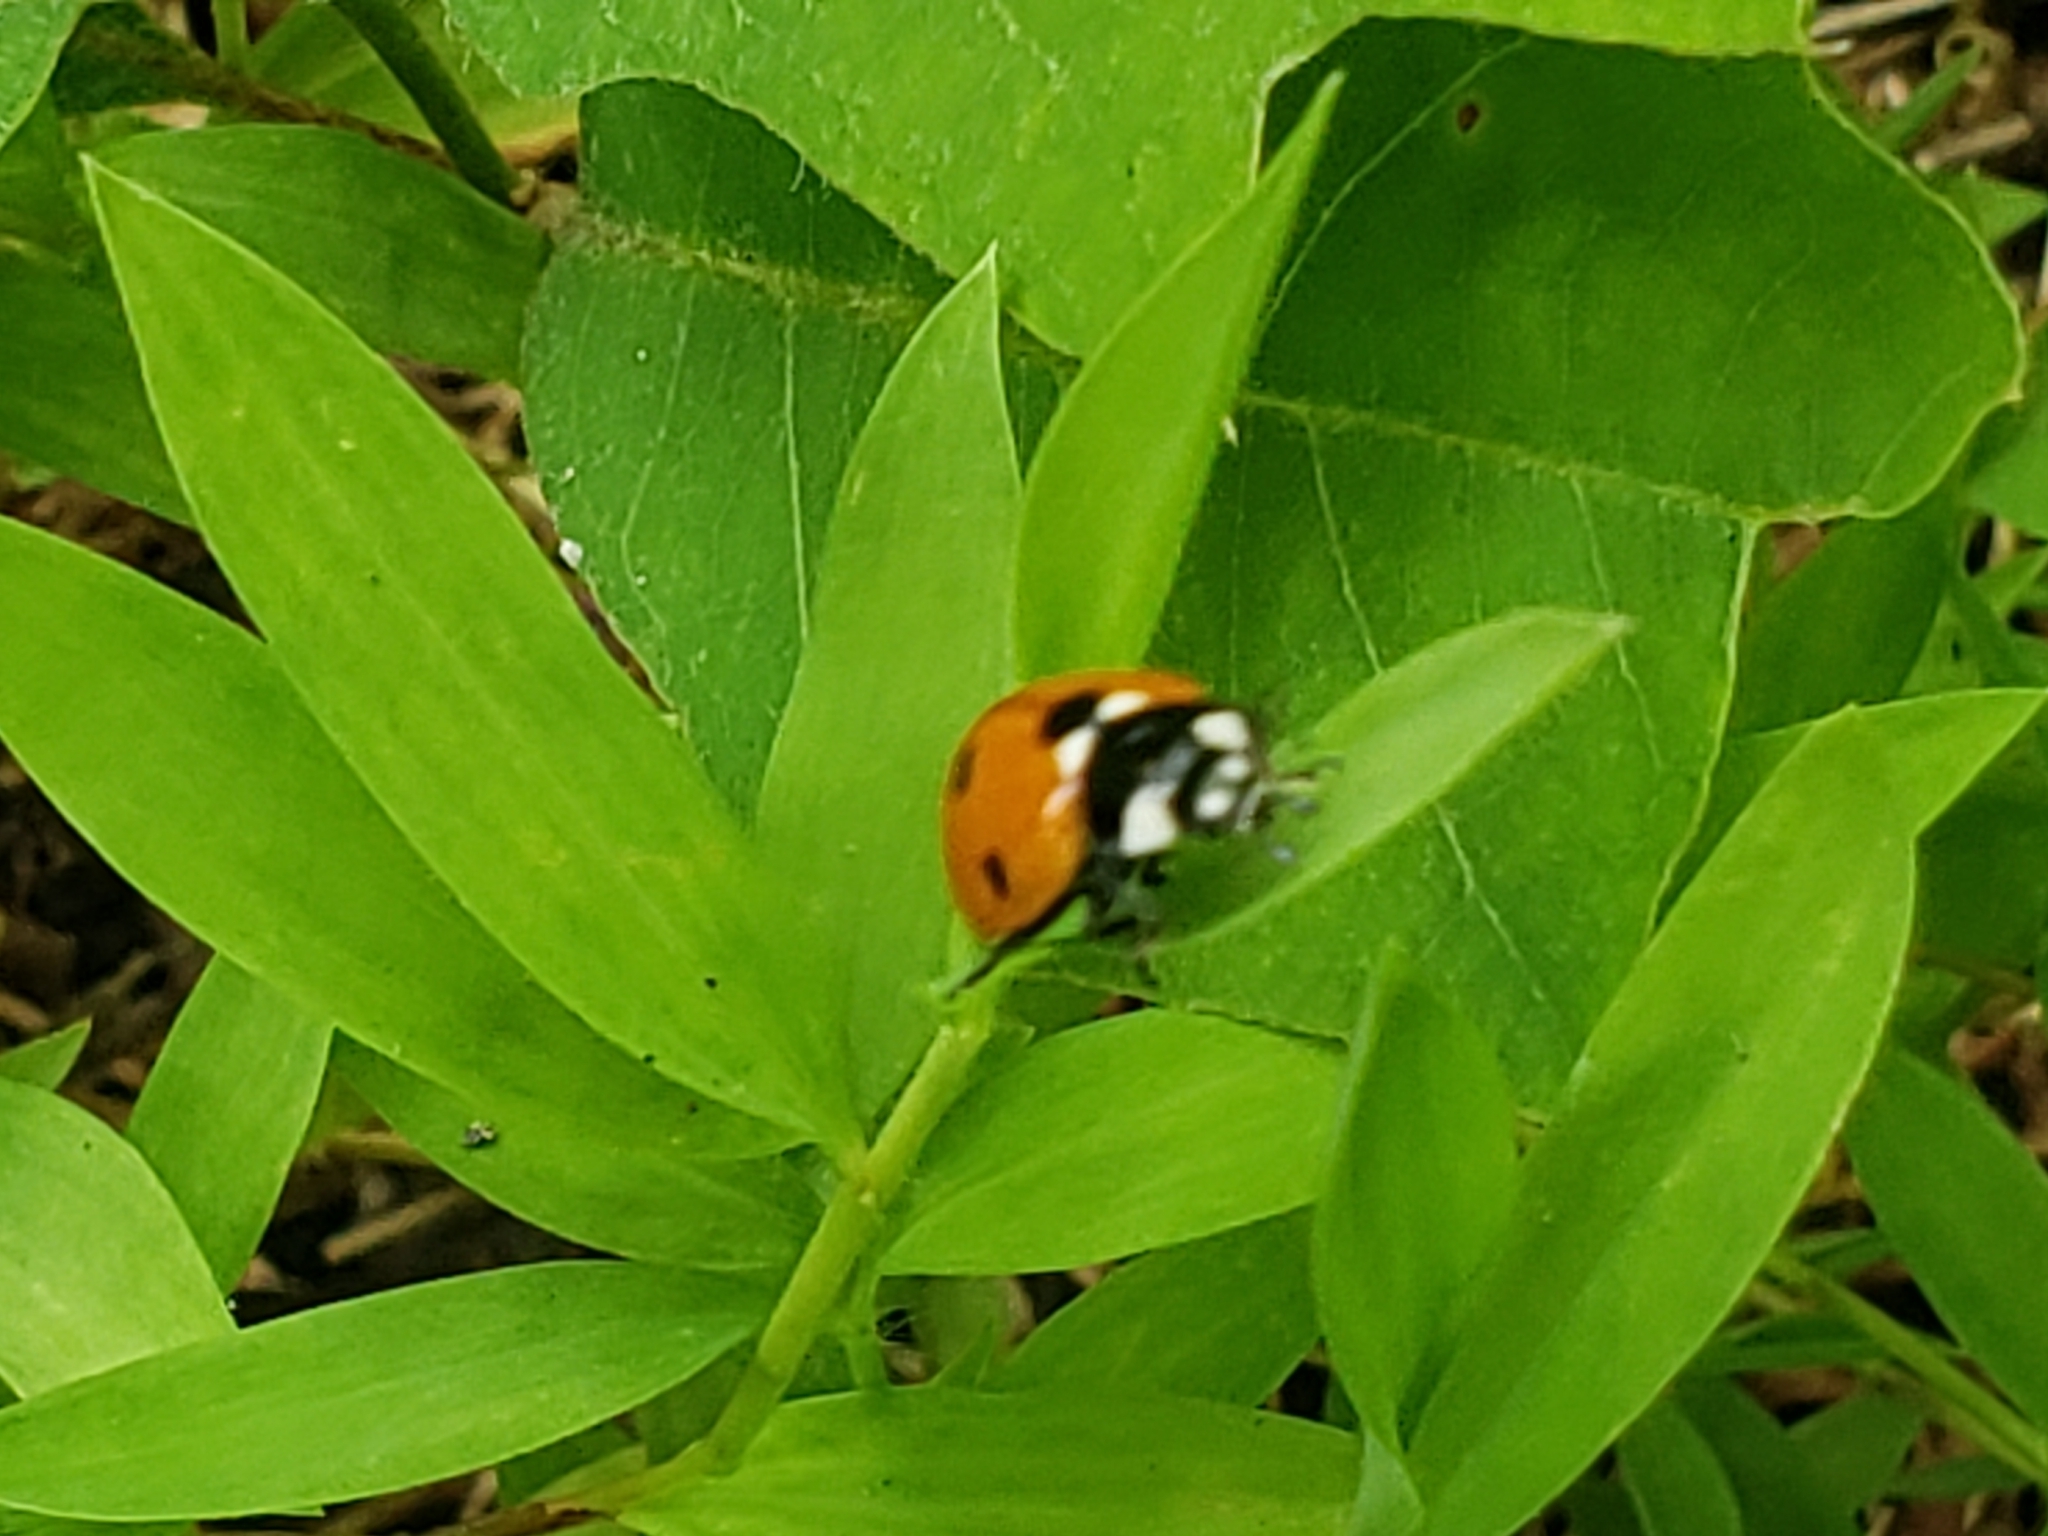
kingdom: Animalia
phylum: Arthropoda
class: Insecta
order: Coleoptera
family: Coccinellidae
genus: Coccinella
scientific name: Coccinella septempunctata
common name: Sevenspotted lady beetle
